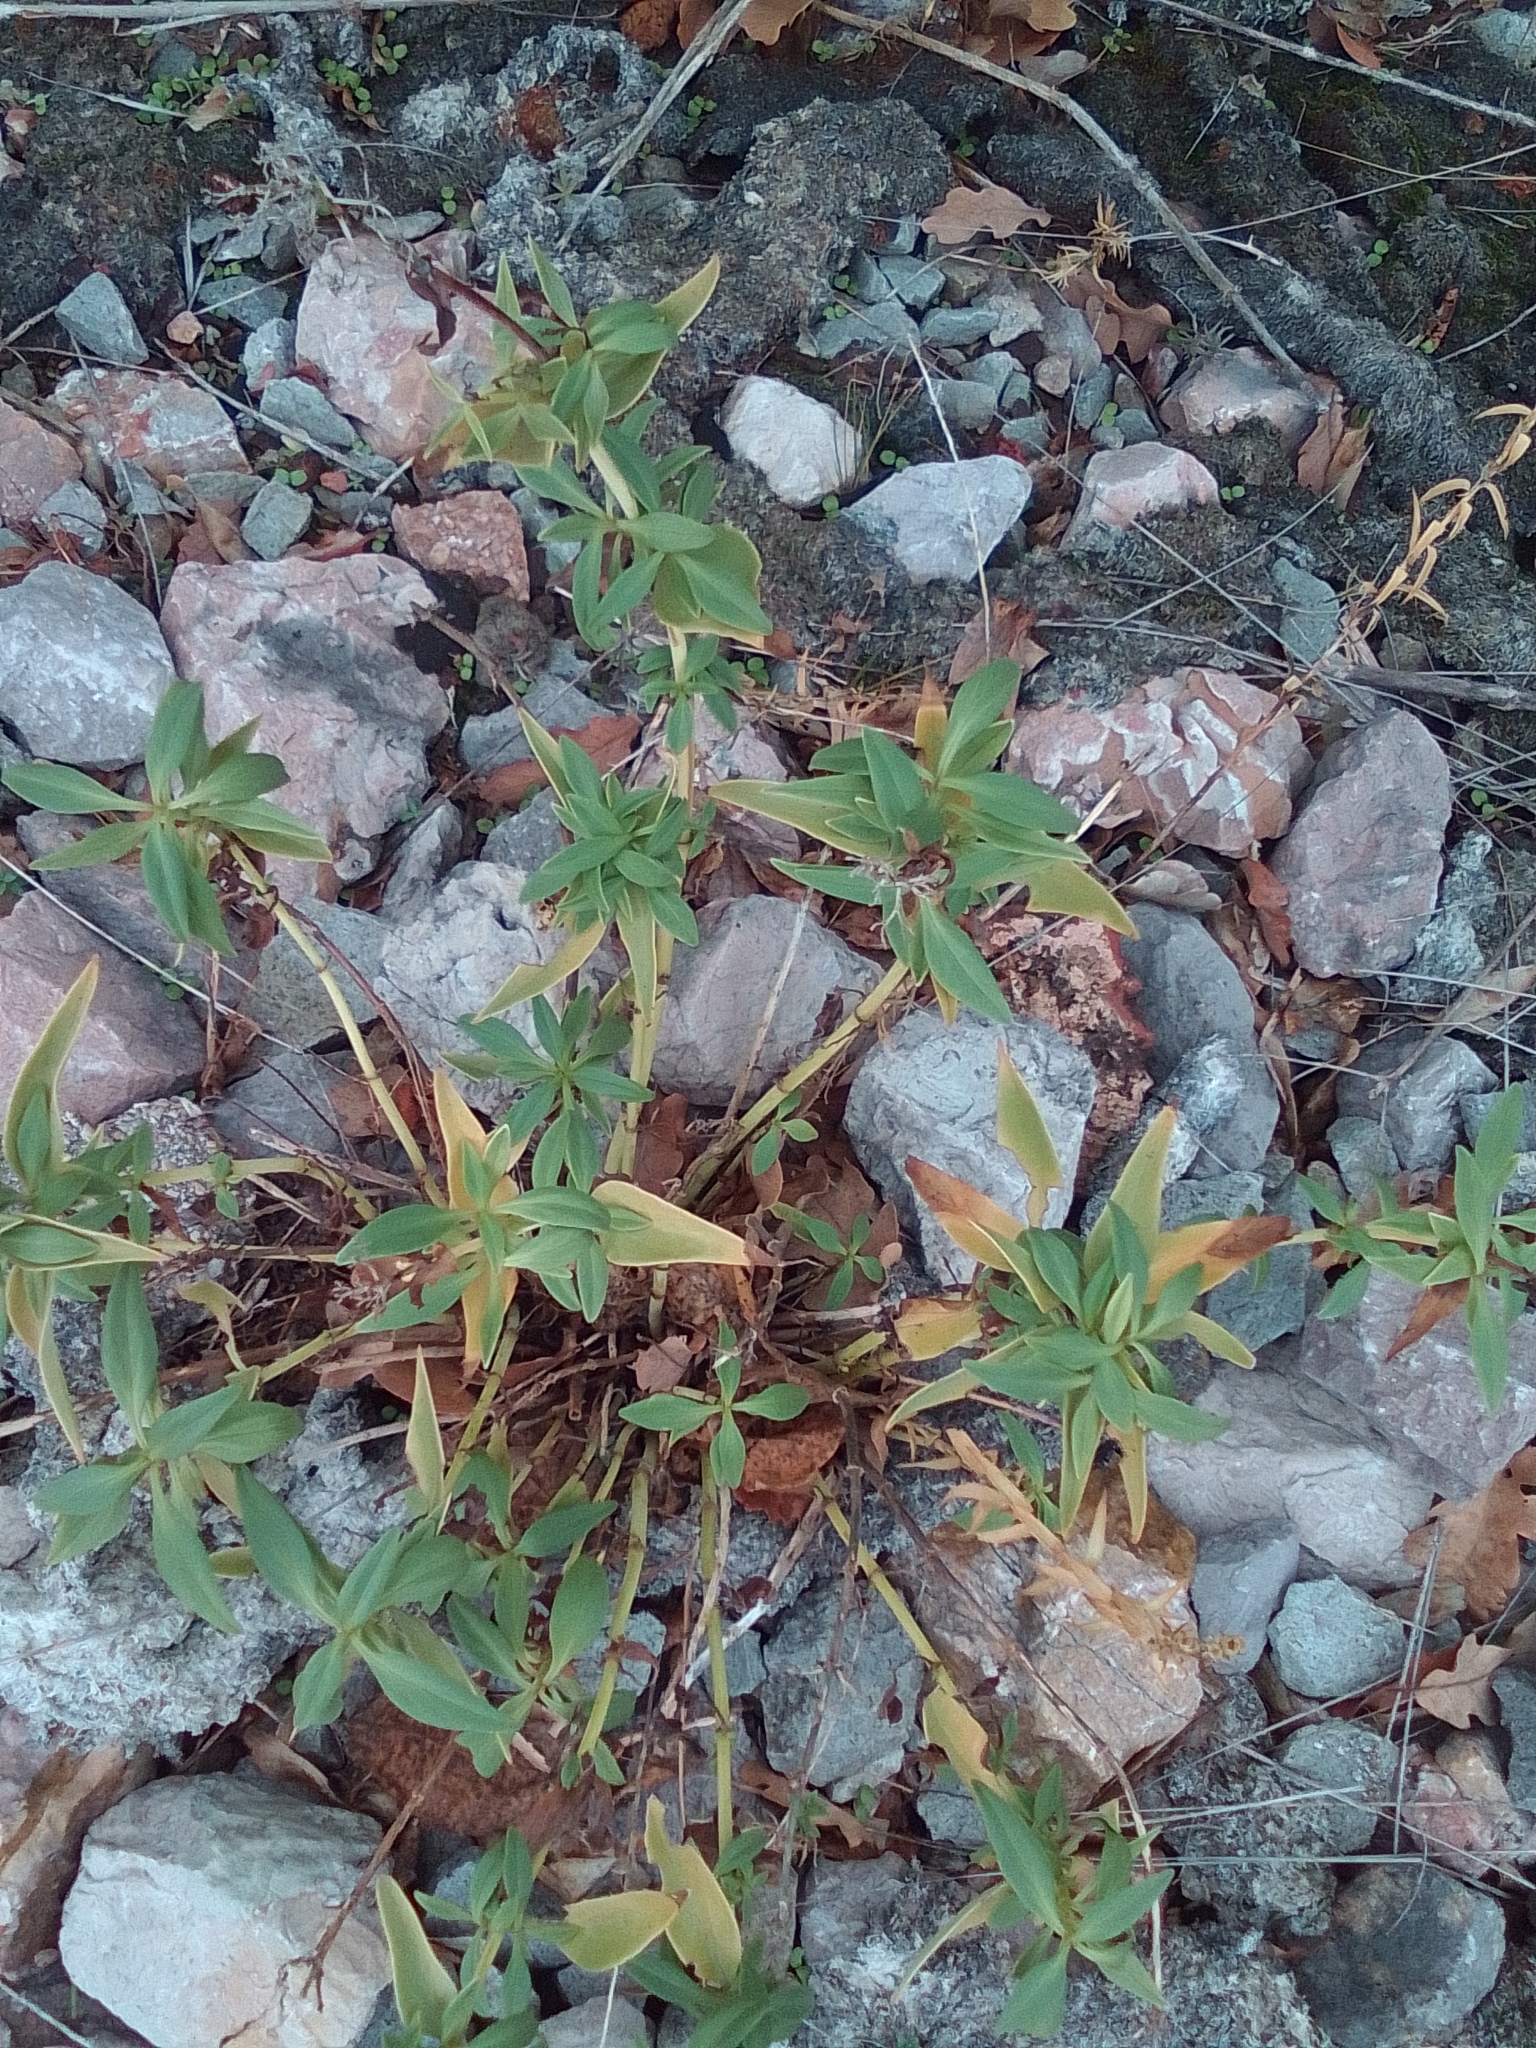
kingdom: Plantae
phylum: Tracheophyta
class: Magnoliopsida
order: Dipsacales
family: Caprifoliaceae
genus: Centranthus
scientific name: Centranthus ruber
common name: Red valerian
